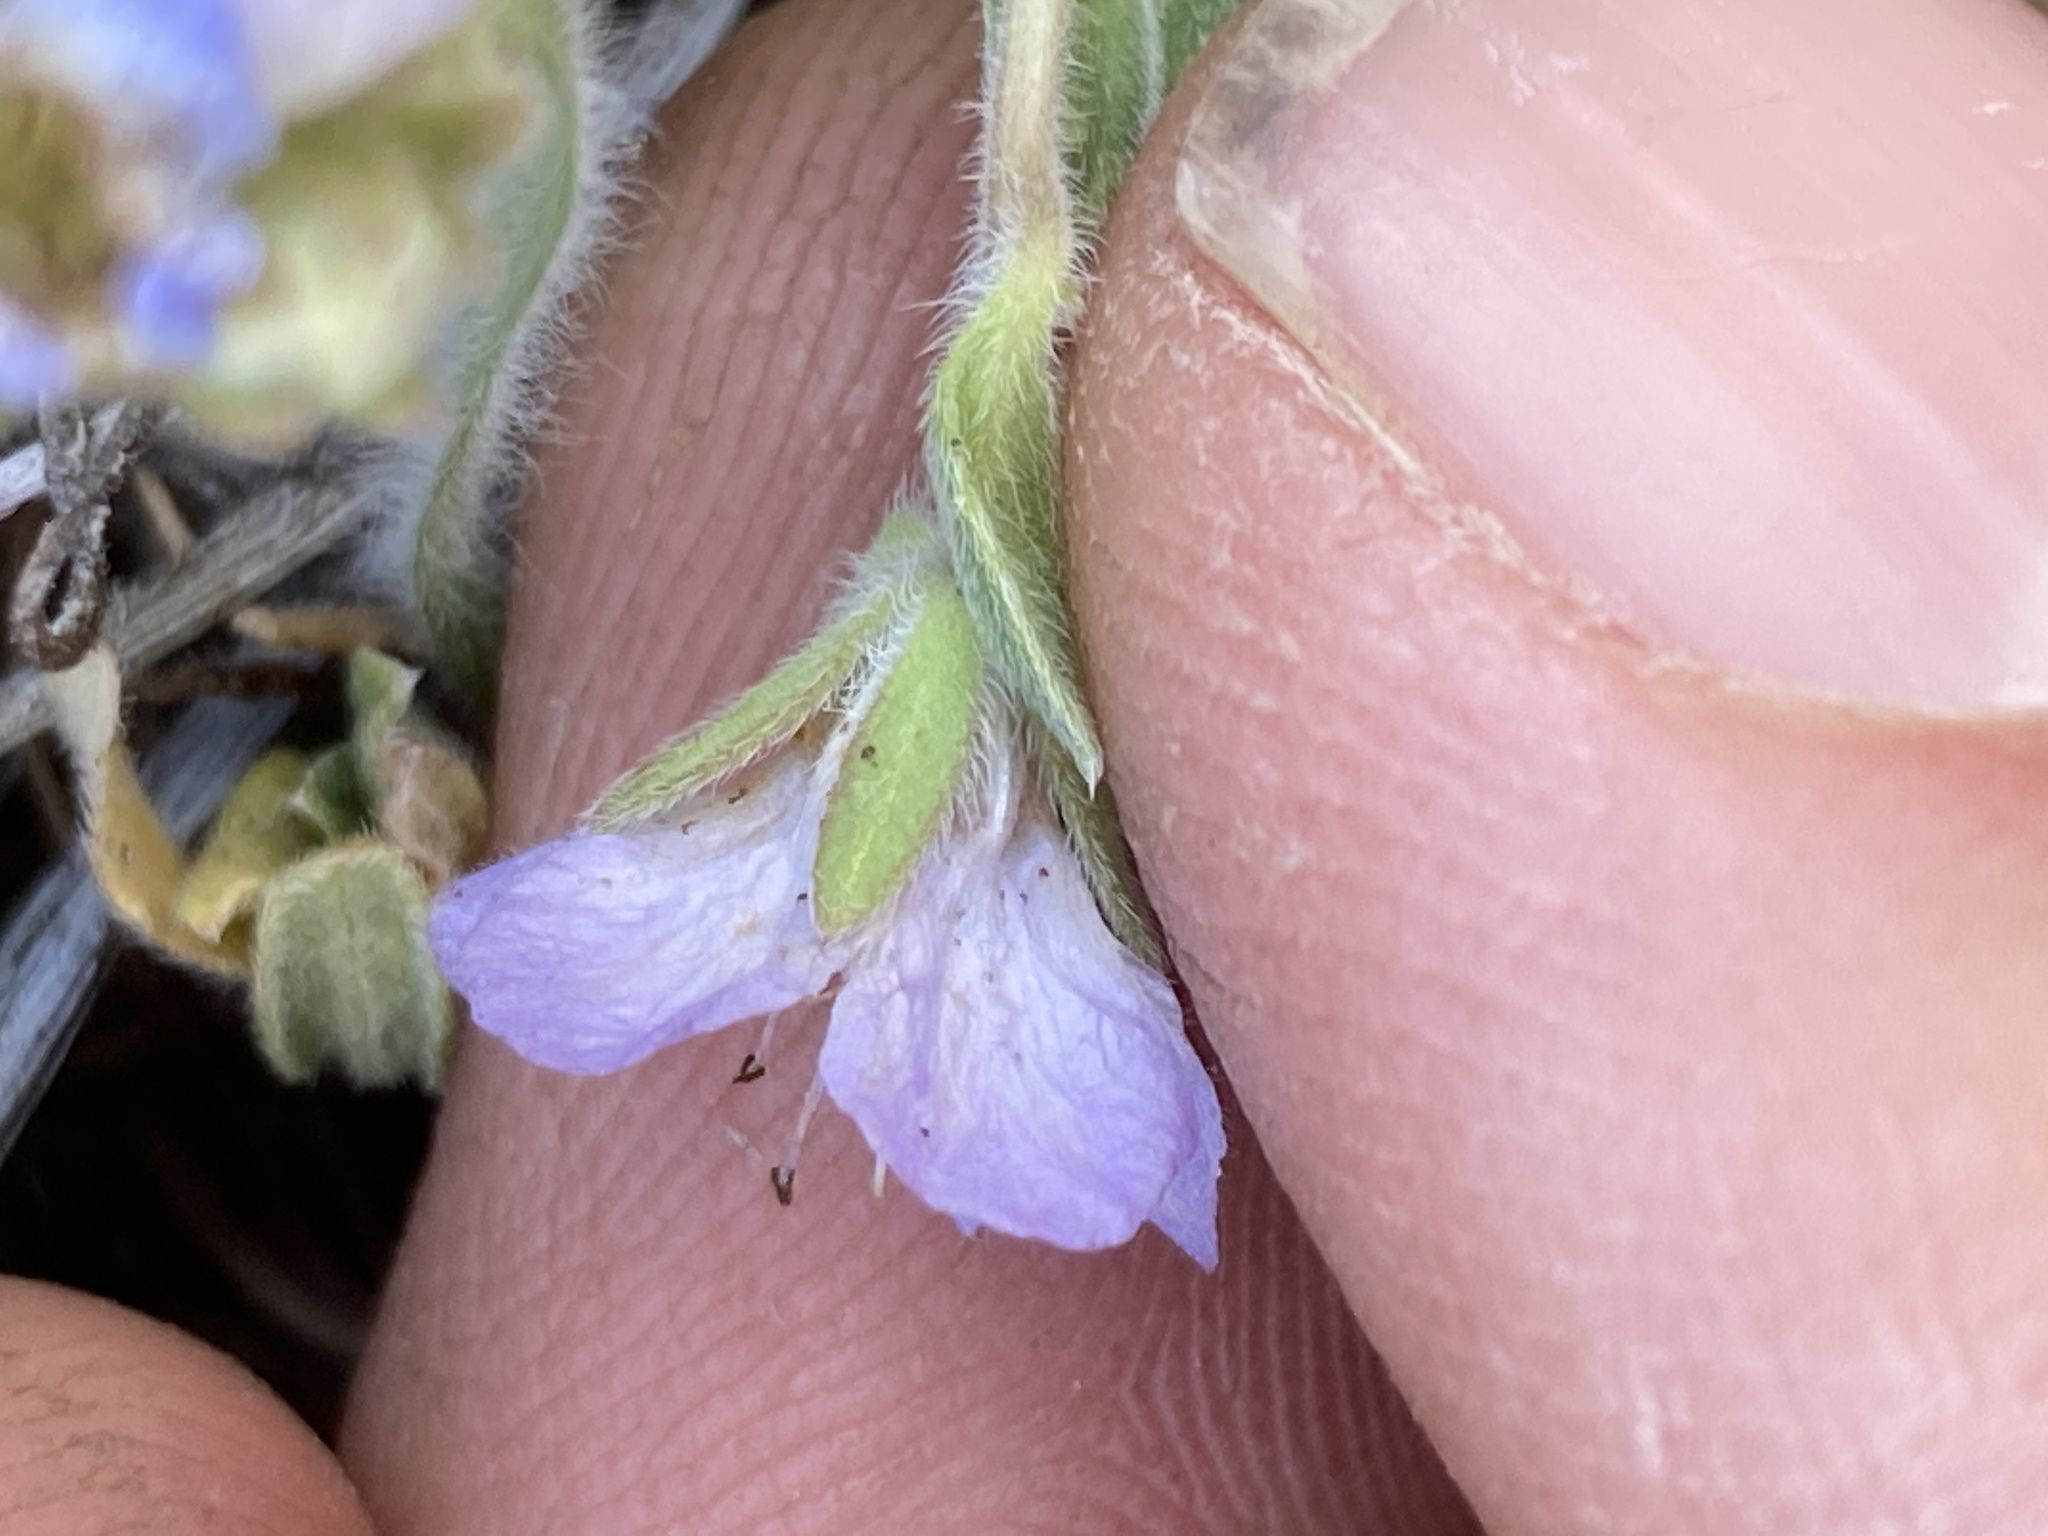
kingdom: Plantae
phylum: Tracheophyta
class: Magnoliopsida
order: Boraginales
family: Hydrophyllaceae
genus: Phacelia
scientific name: Phacelia divaricata
